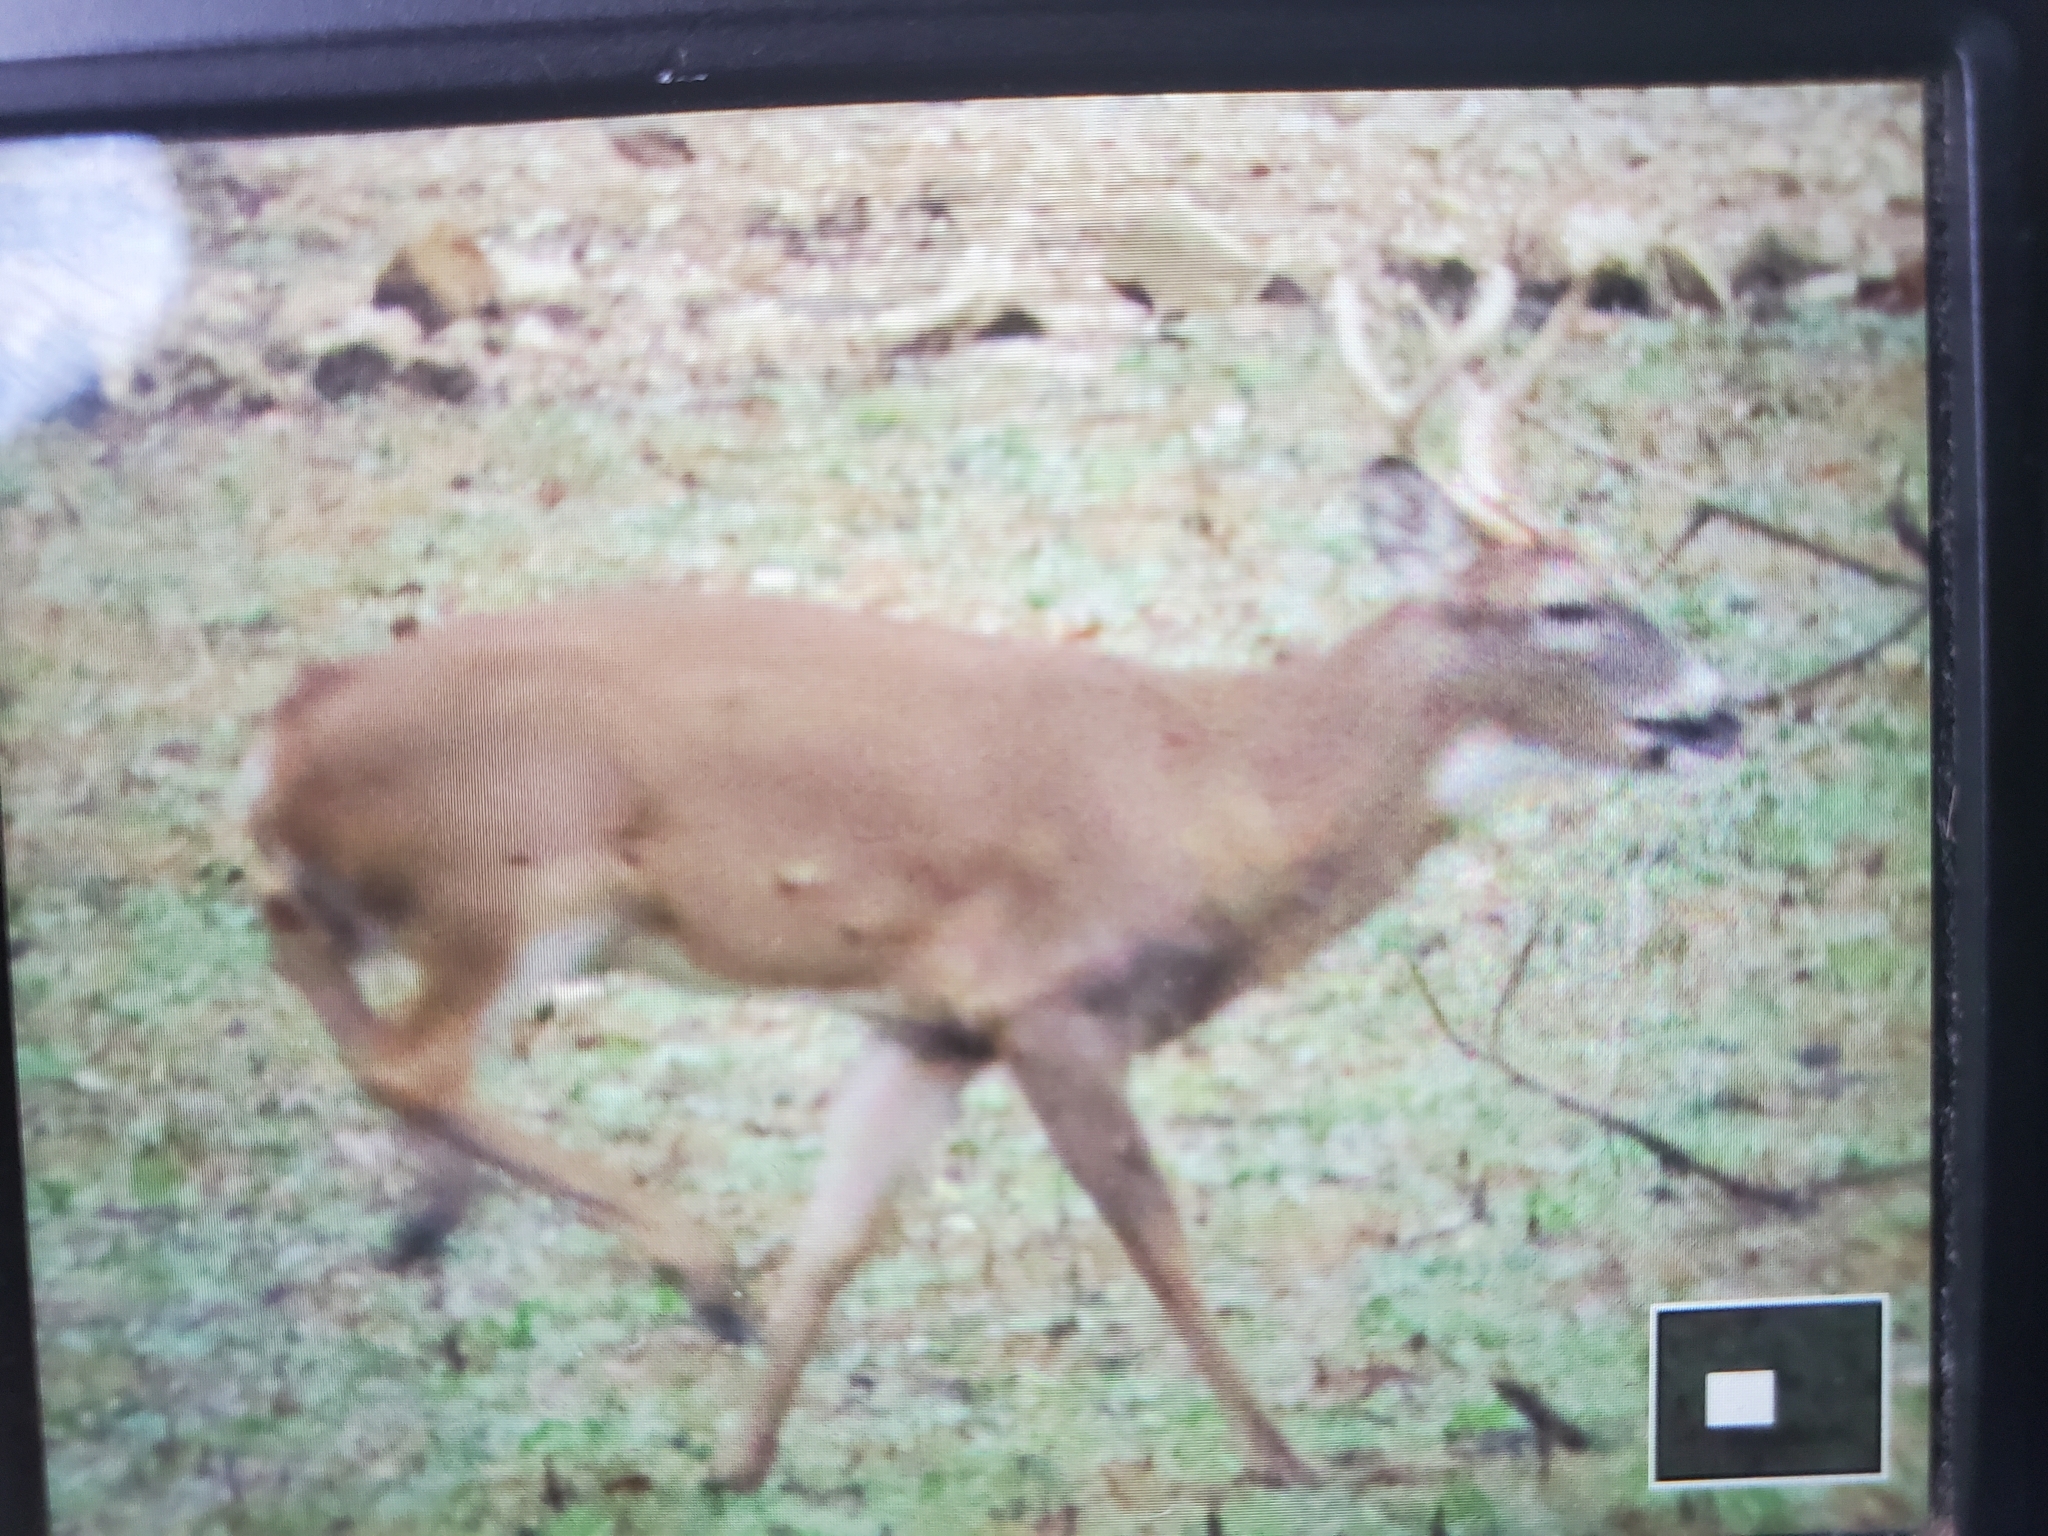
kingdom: Animalia
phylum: Chordata
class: Mammalia
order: Artiodactyla
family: Cervidae
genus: Odocoileus
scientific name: Odocoileus virginianus
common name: White-tailed deer
